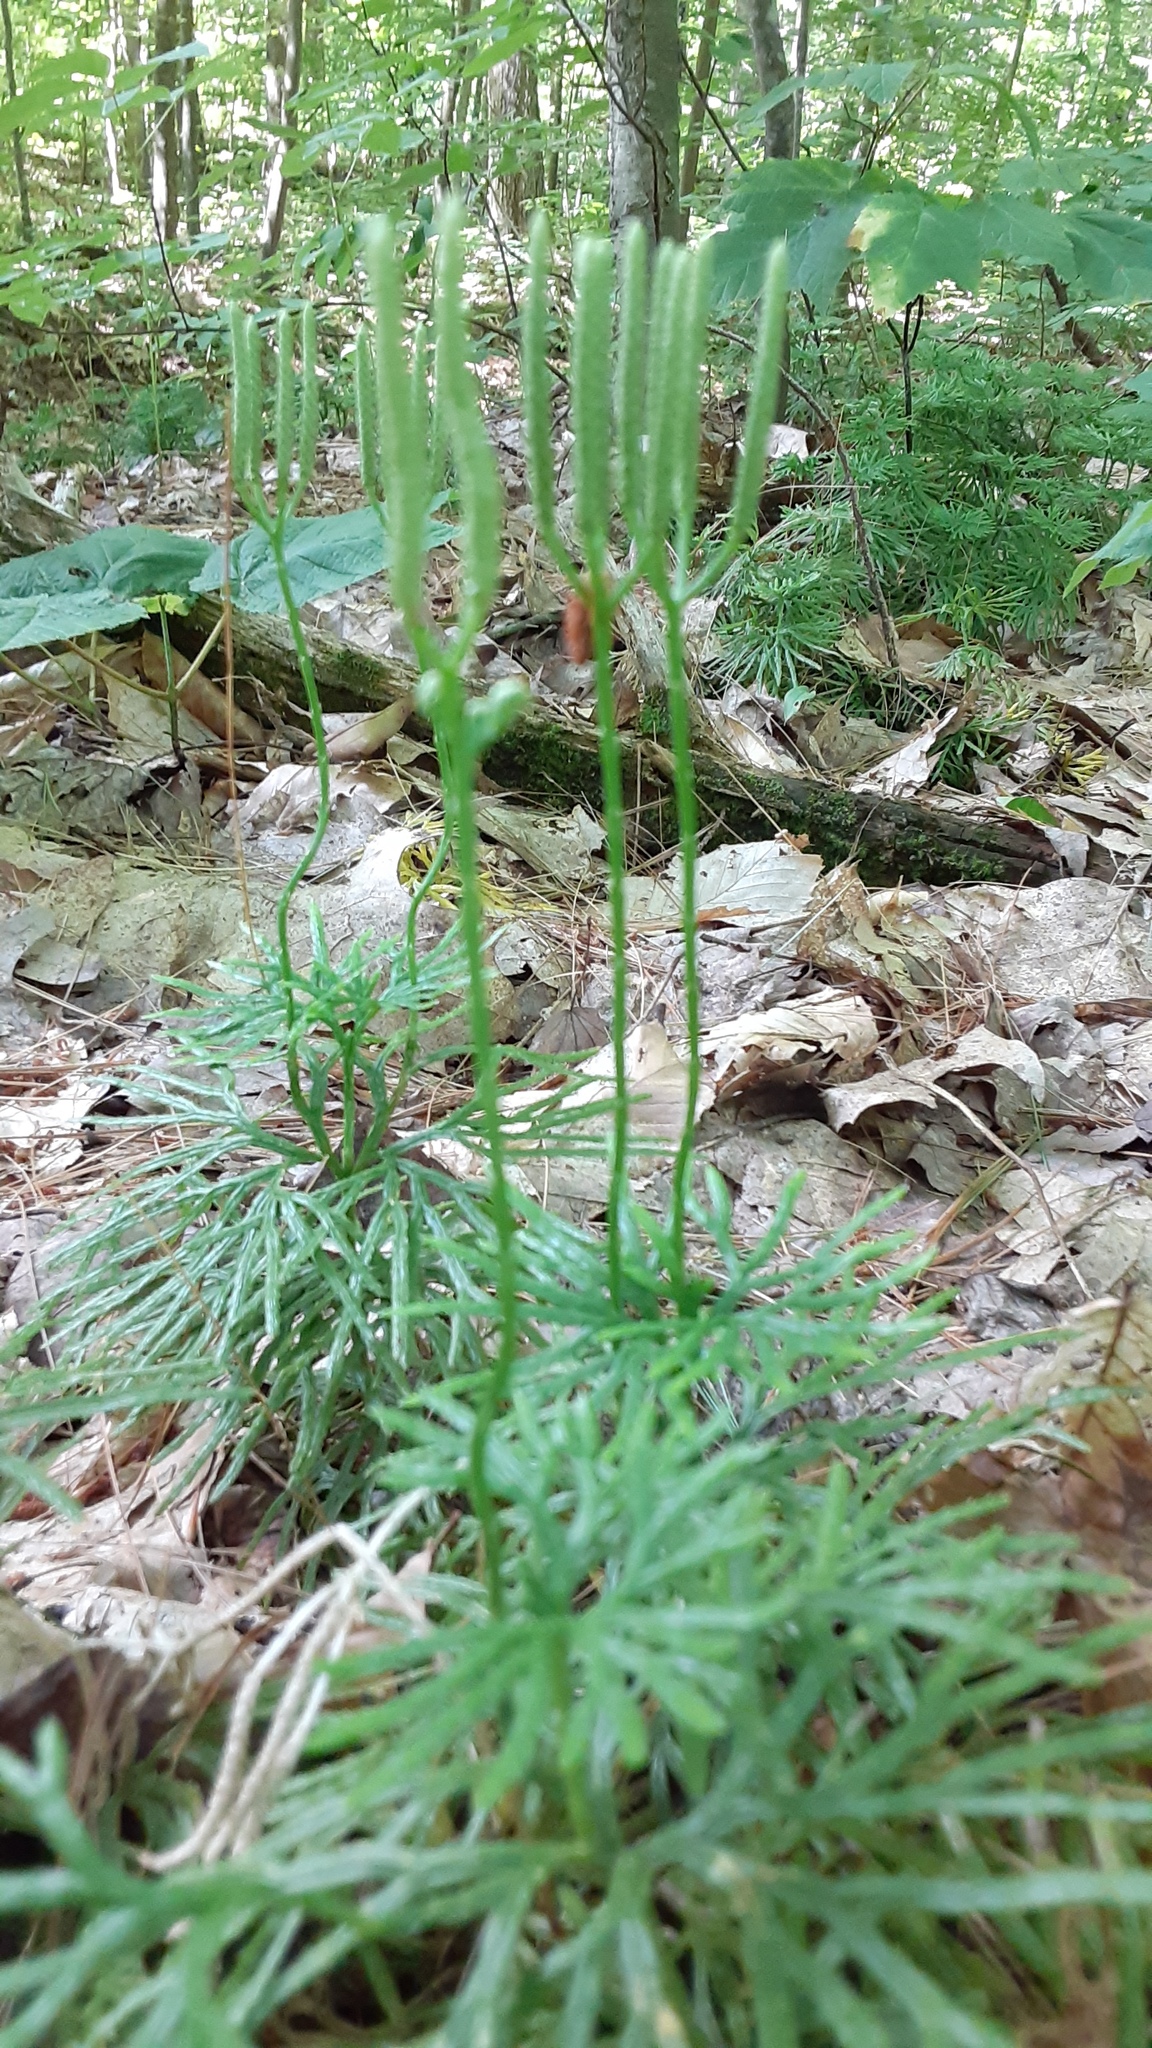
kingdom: Plantae
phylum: Tracheophyta
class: Lycopodiopsida
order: Lycopodiales
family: Lycopodiaceae
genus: Diphasiastrum
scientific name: Diphasiastrum digitatum
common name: Southern running-pine
